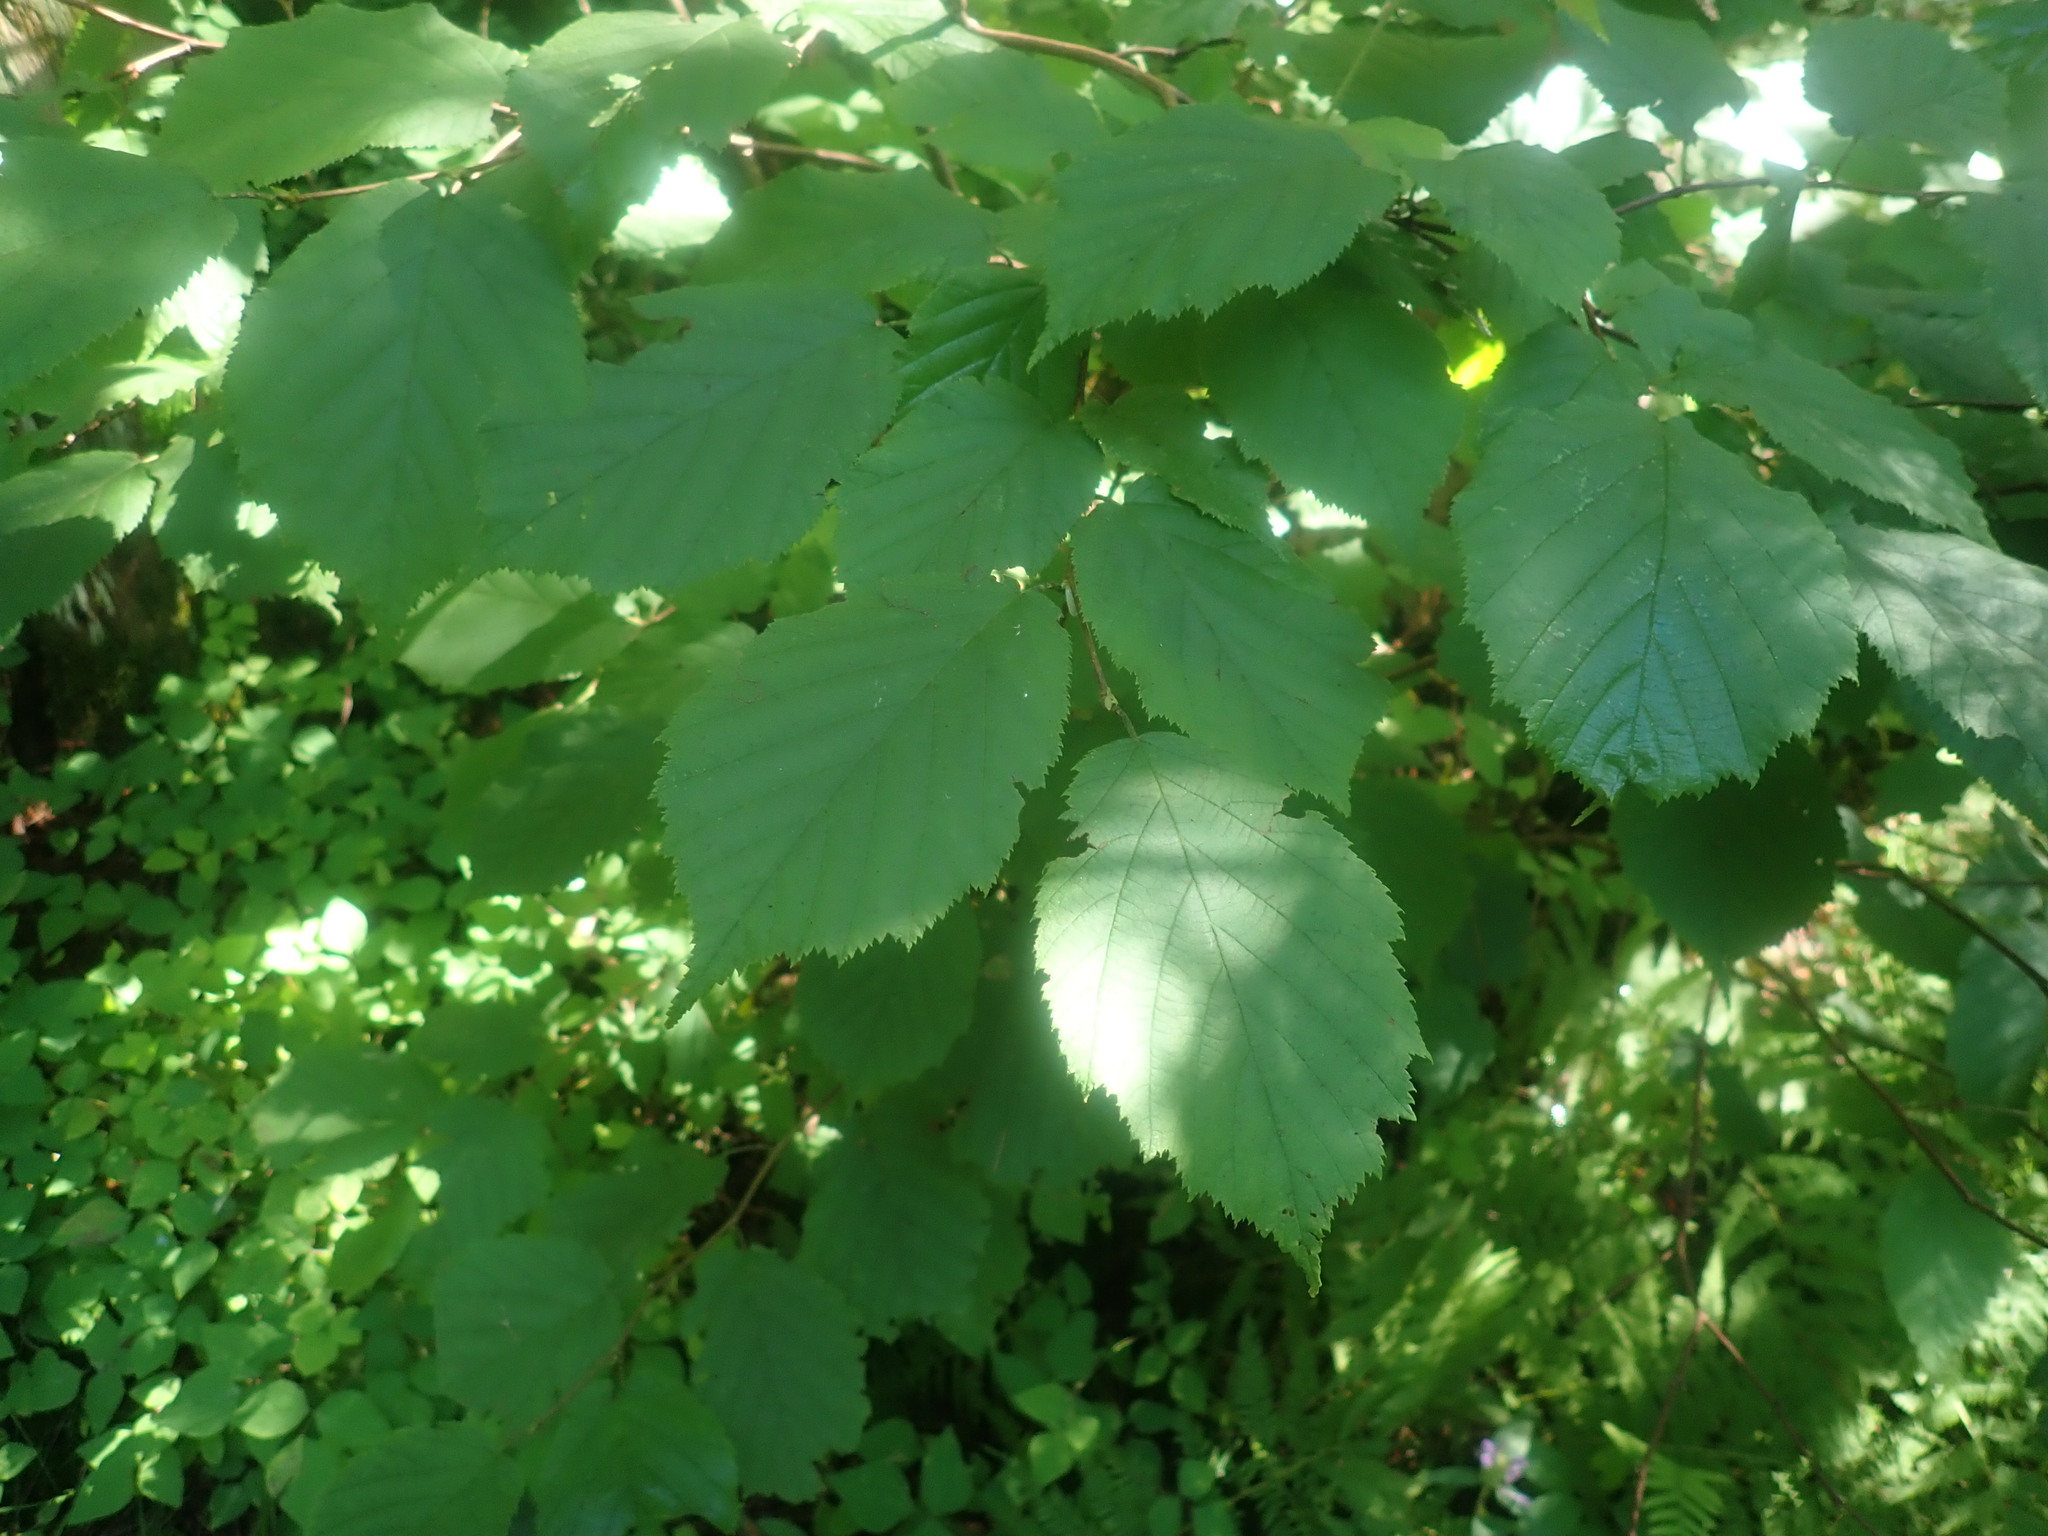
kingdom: Plantae
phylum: Tracheophyta
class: Magnoliopsida
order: Fagales
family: Betulaceae
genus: Corylus
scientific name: Corylus cornuta
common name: Beaked hazel
